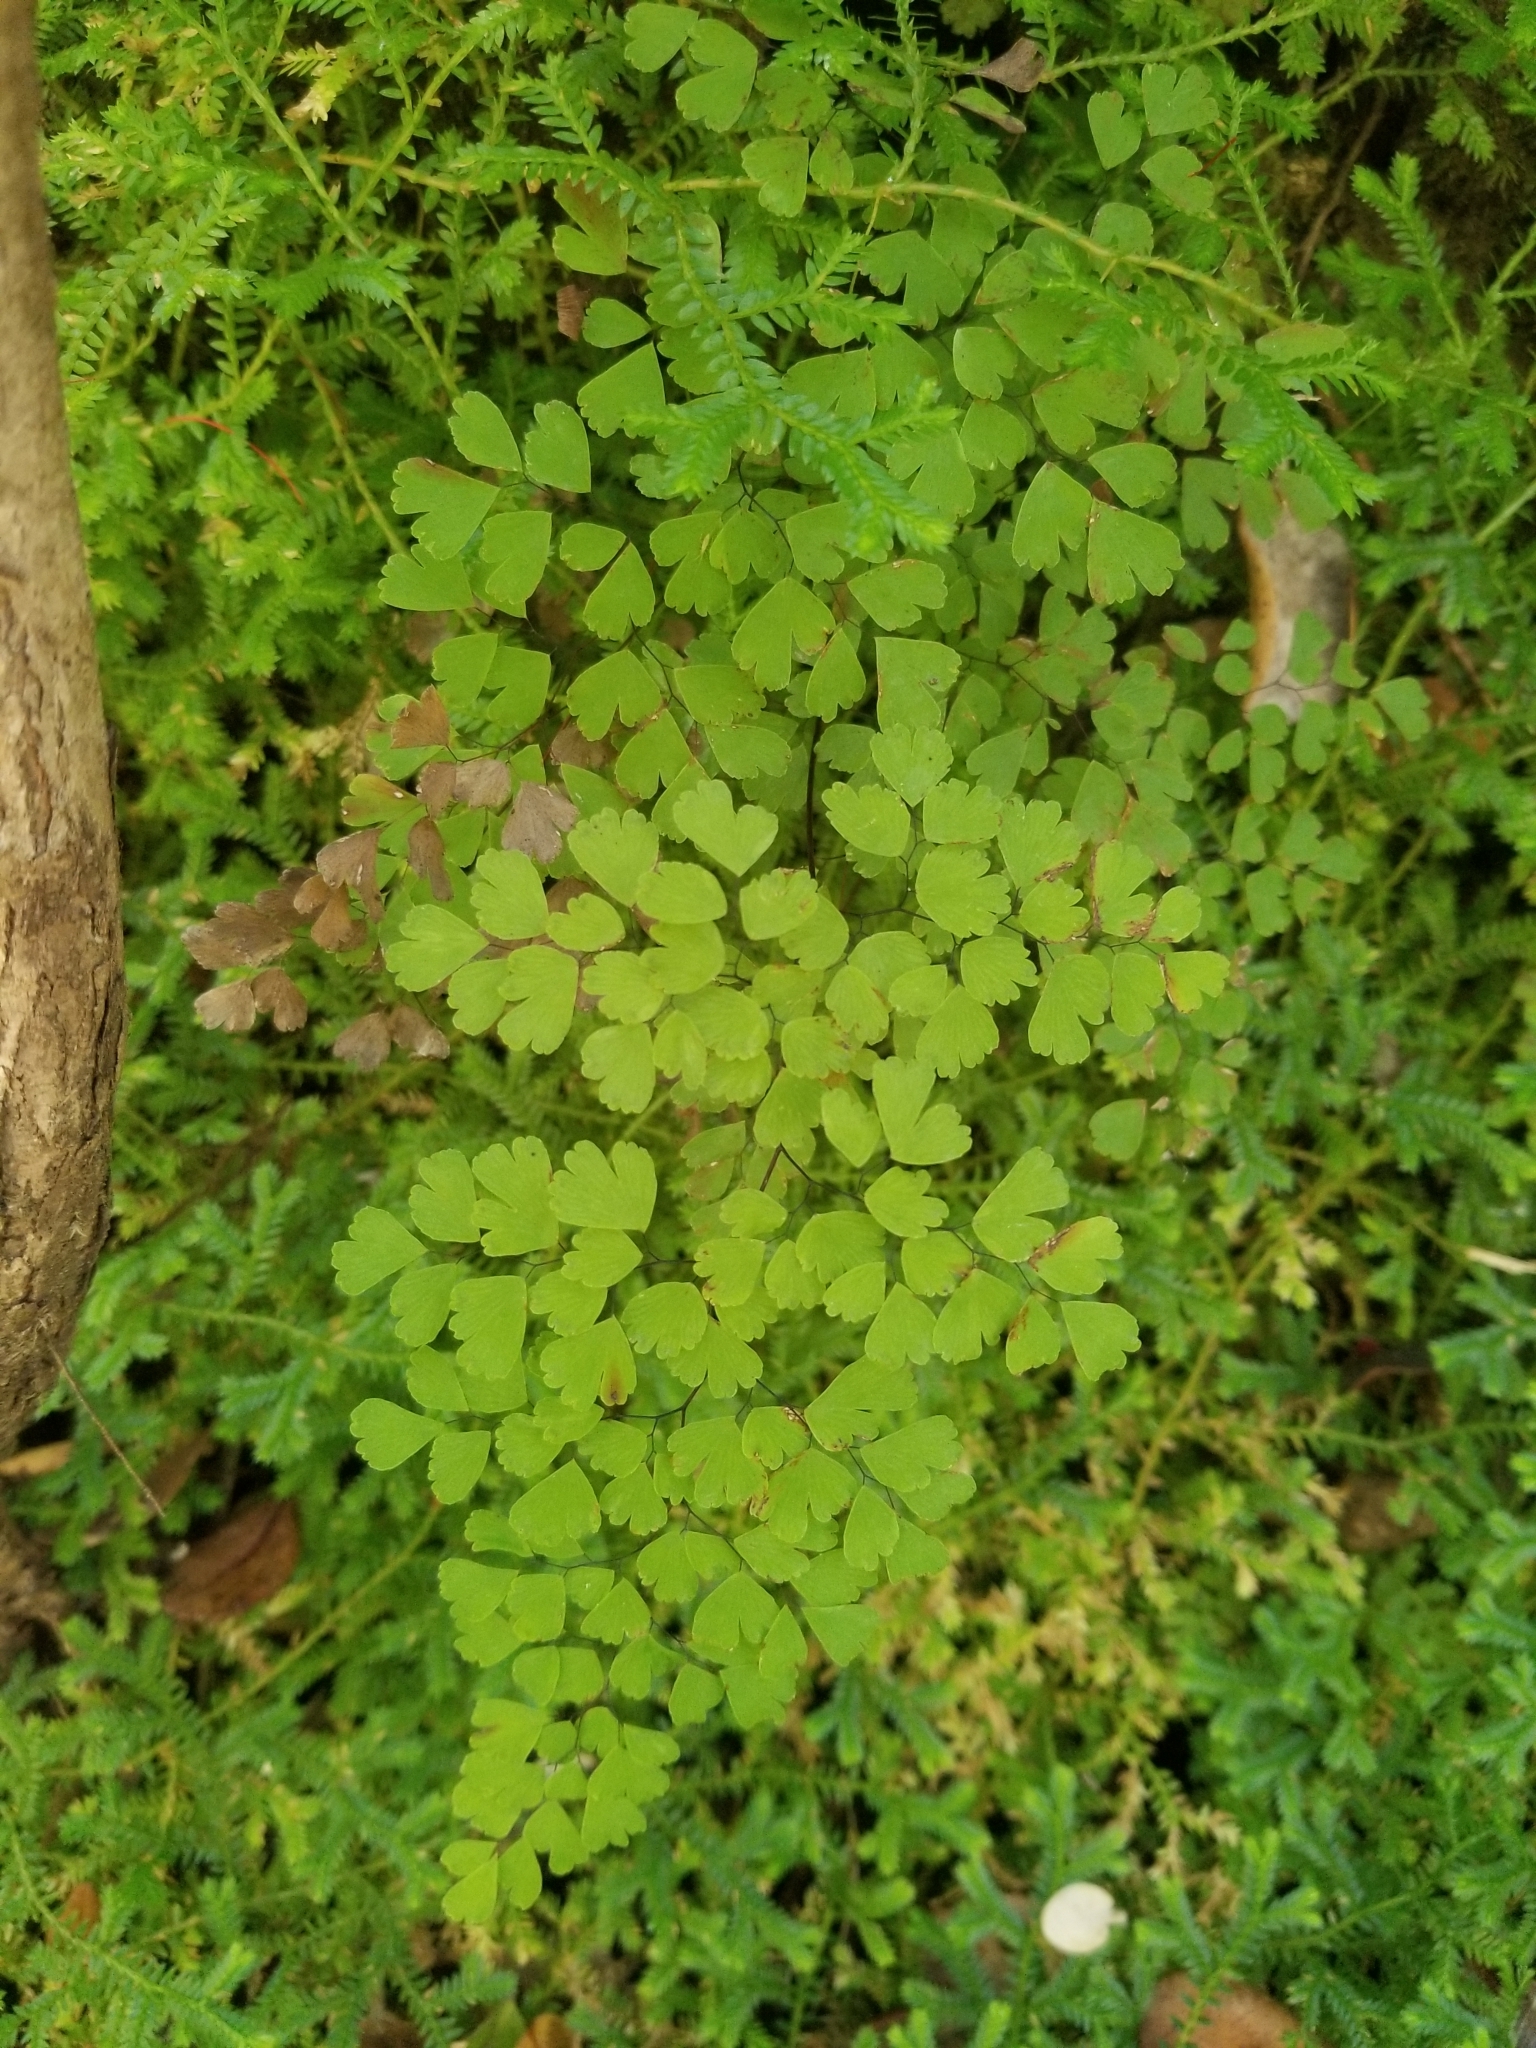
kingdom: Plantae
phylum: Tracheophyta
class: Polypodiopsida
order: Polypodiales
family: Pteridaceae
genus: Adiantum
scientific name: Adiantum raddianum
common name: Delta maidenhair fern
